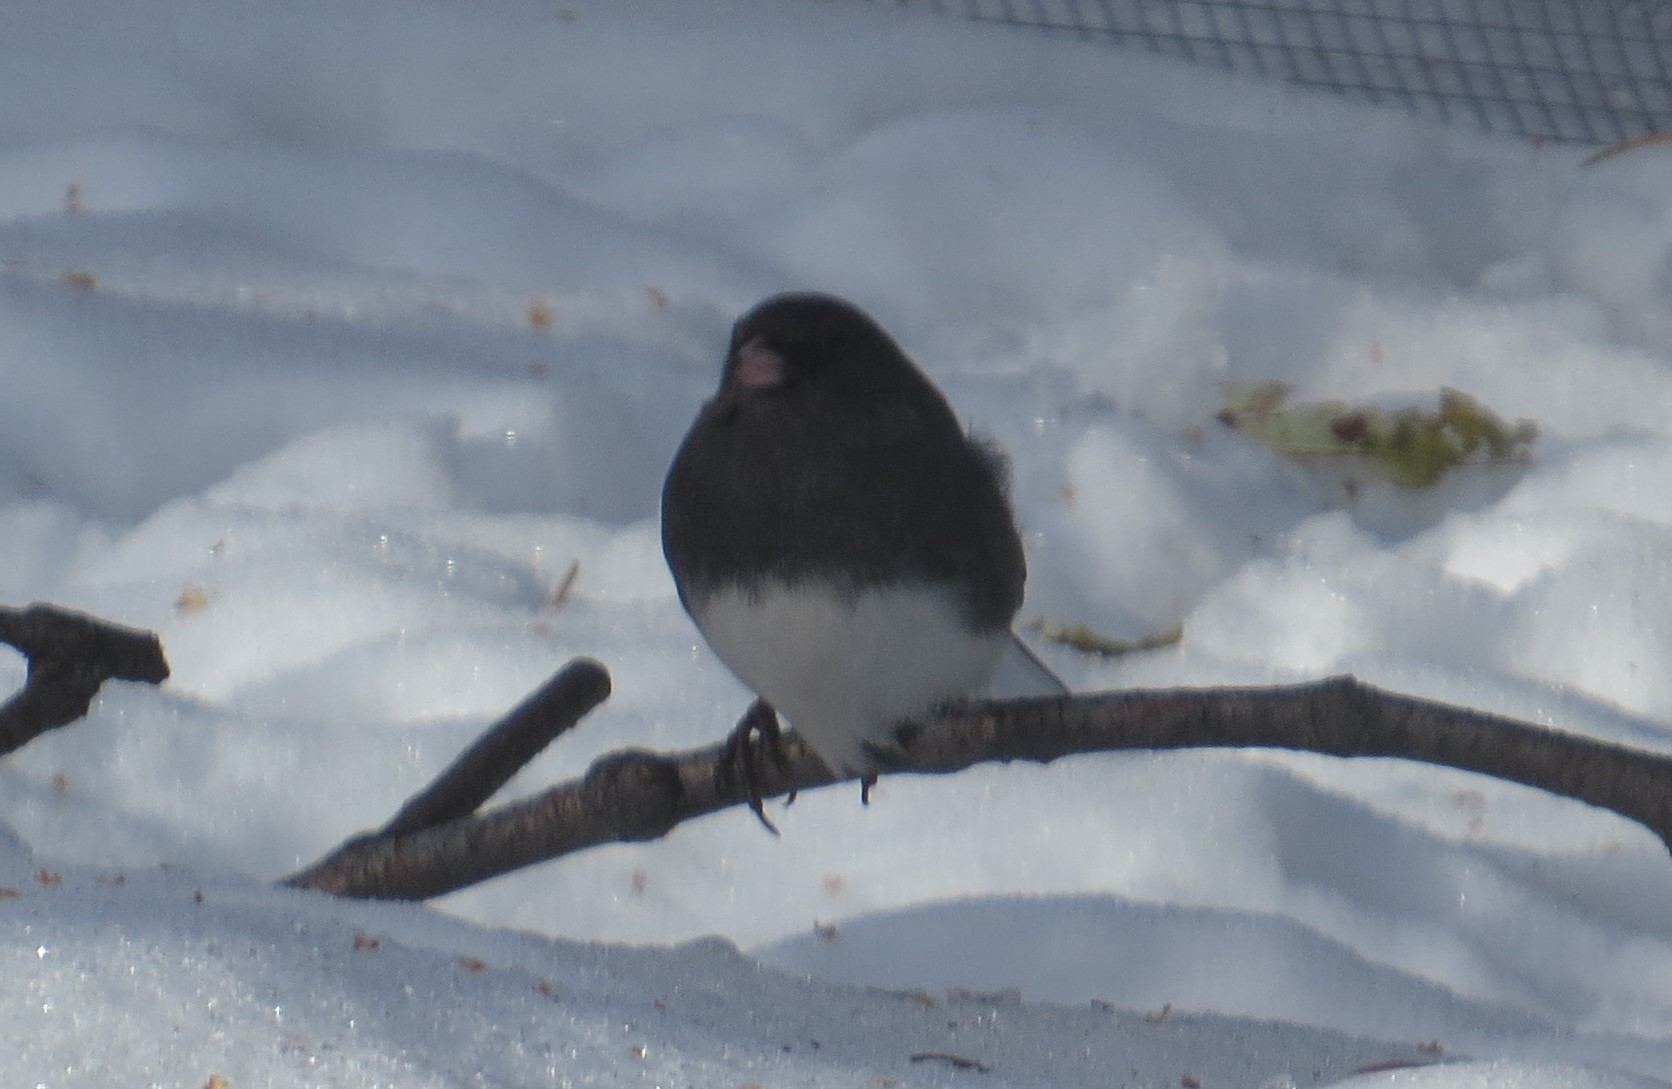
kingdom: Animalia
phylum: Chordata
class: Aves
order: Passeriformes
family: Passerellidae
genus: Junco
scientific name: Junco hyemalis
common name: Dark-eyed junco
